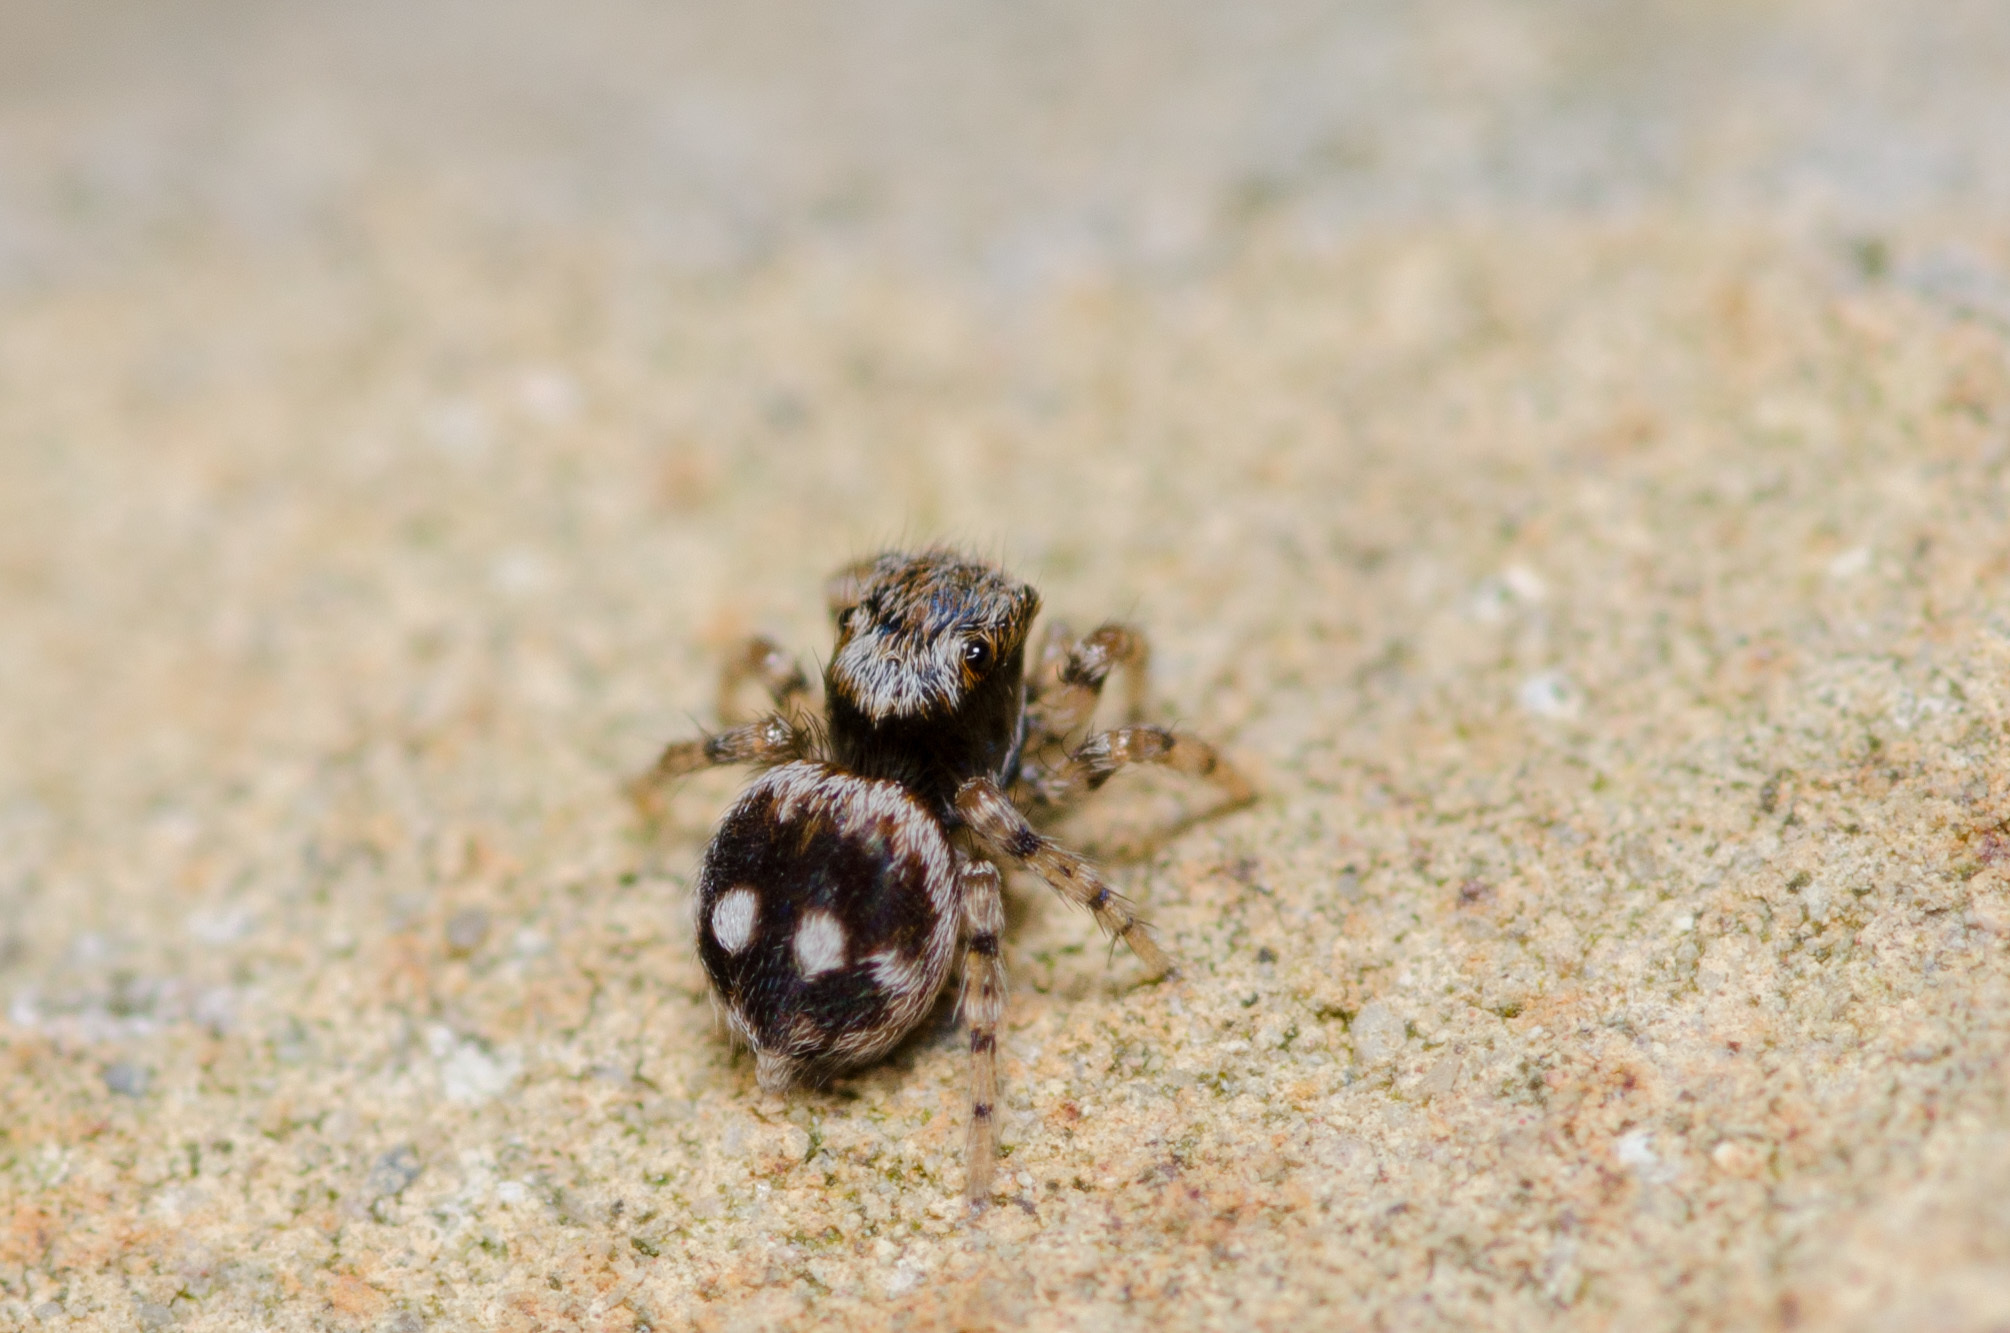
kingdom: Animalia
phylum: Arthropoda
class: Arachnida
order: Araneae
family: Salticidae
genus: Naphrys
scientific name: Naphrys acerba
